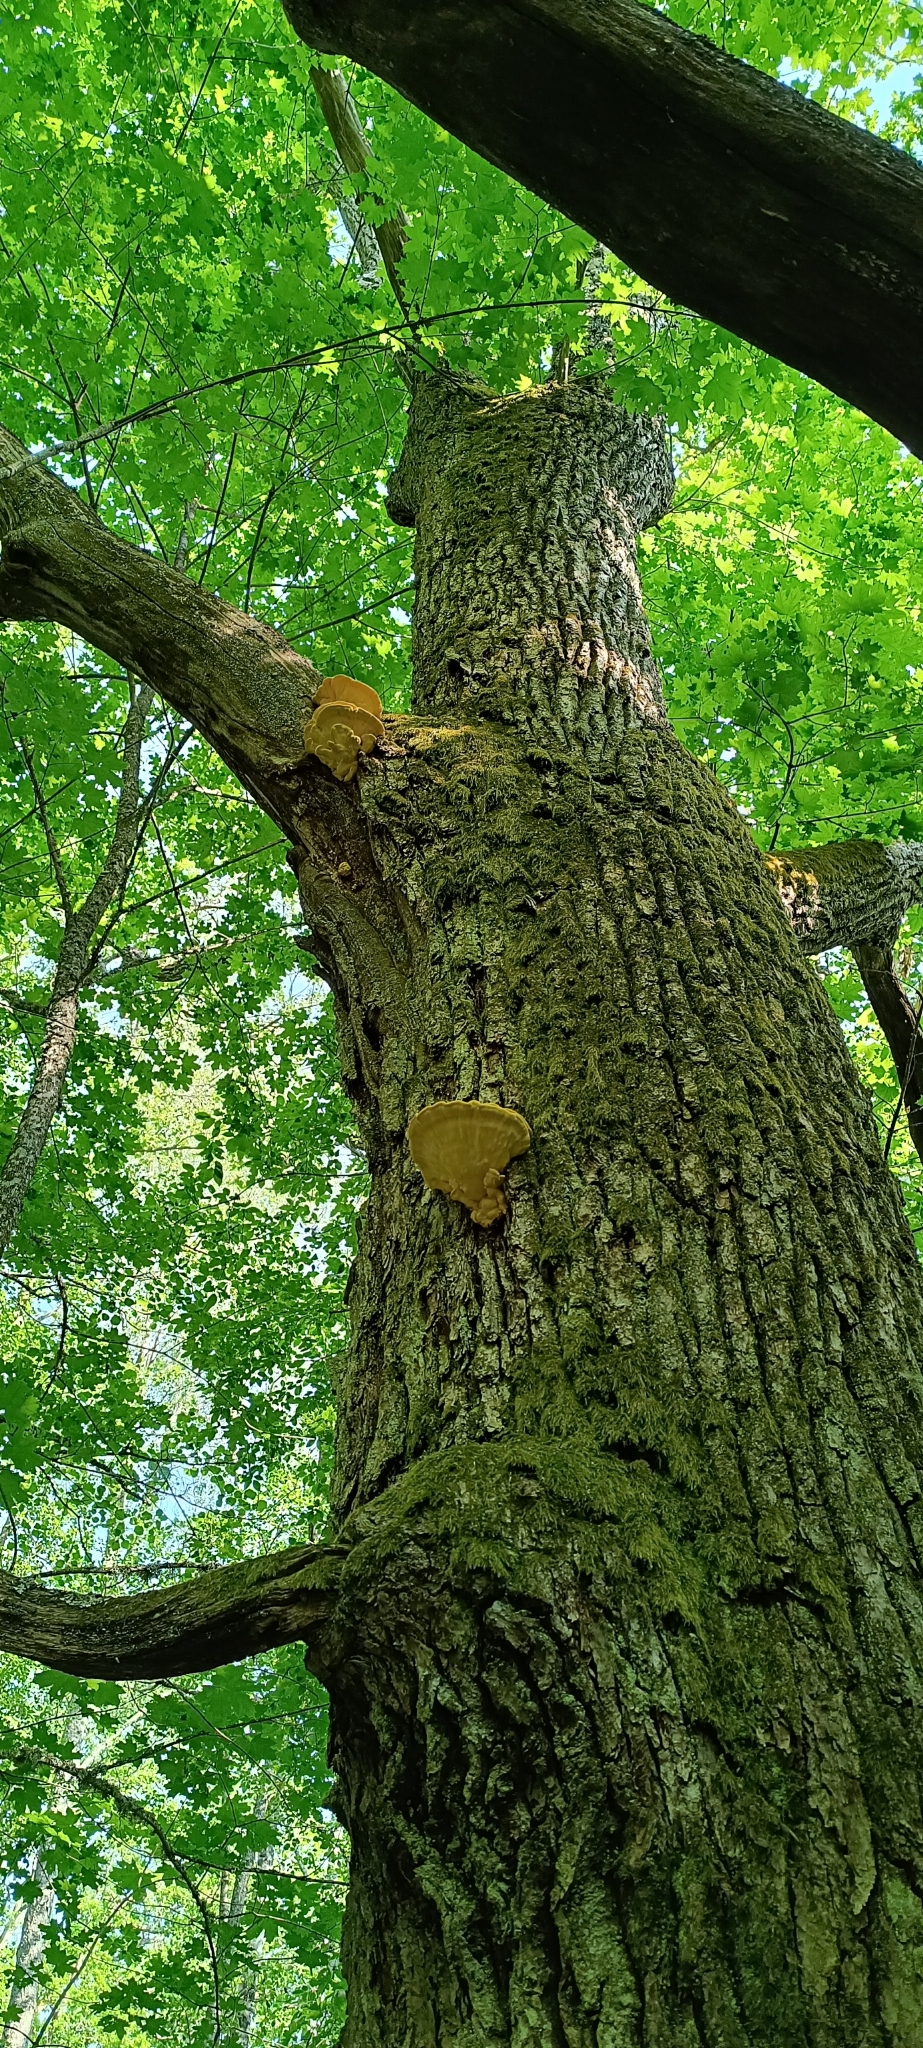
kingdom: Fungi
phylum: Basidiomycota
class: Agaricomycetes
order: Polyporales
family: Laetiporaceae
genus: Laetiporus
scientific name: Laetiporus sulphureus
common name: Chicken of the woods
